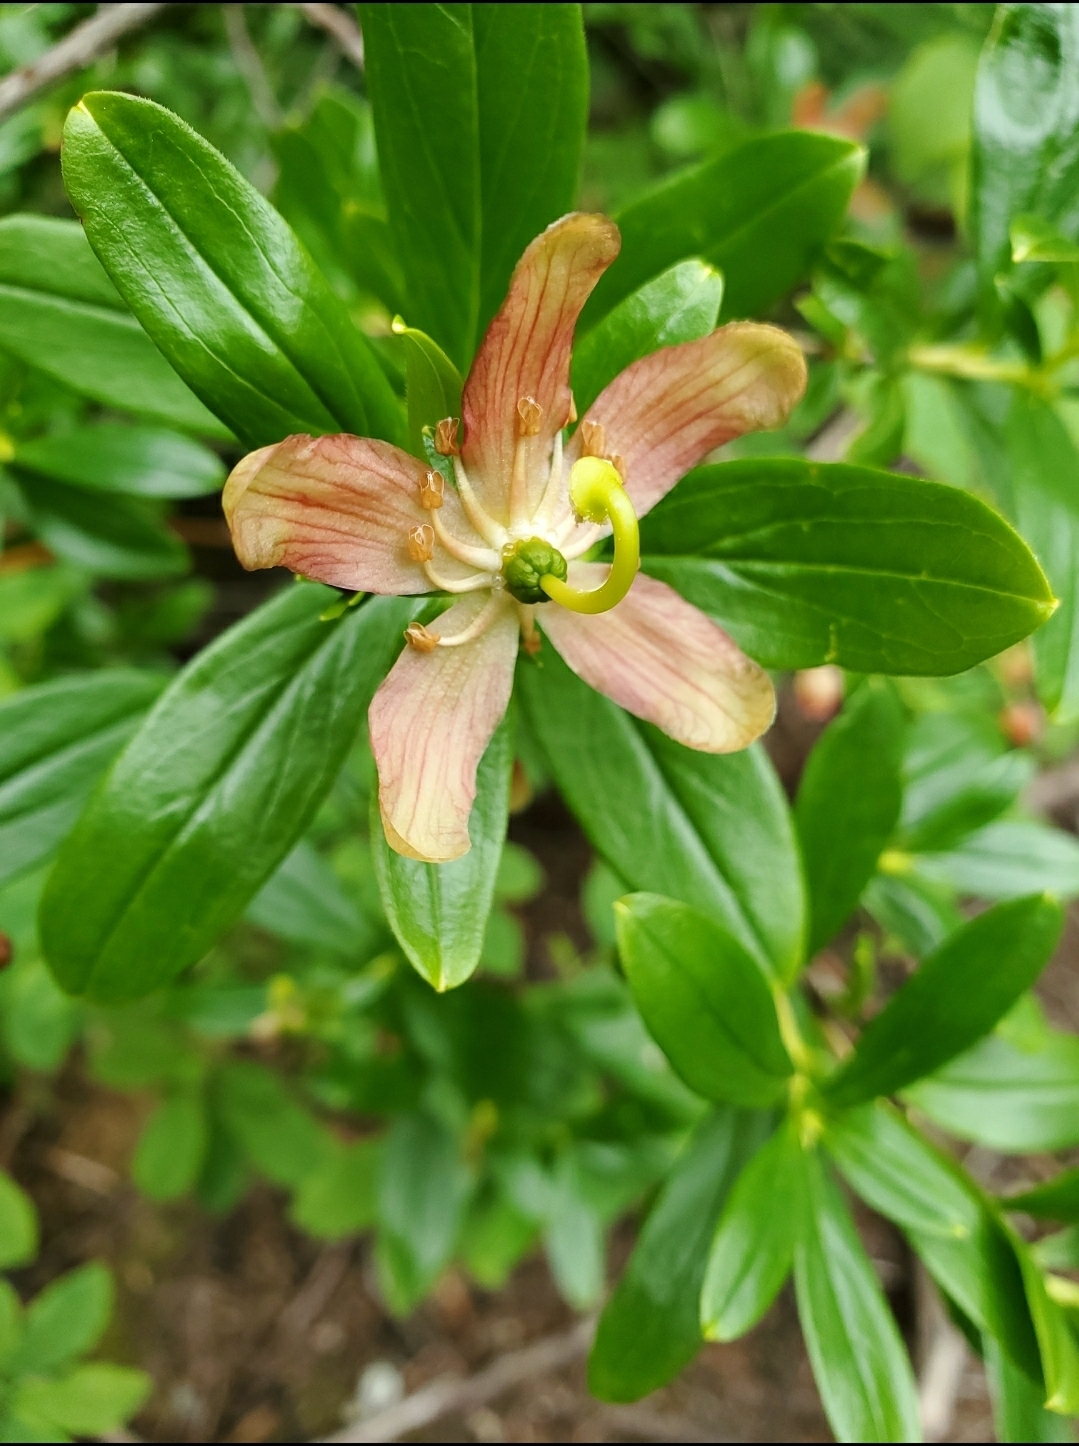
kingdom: Plantae
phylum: Tracheophyta
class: Magnoliopsida
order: Ericales
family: Ericaceae
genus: Elliottia
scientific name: Elliottia pyroliflora
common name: Copperbush
